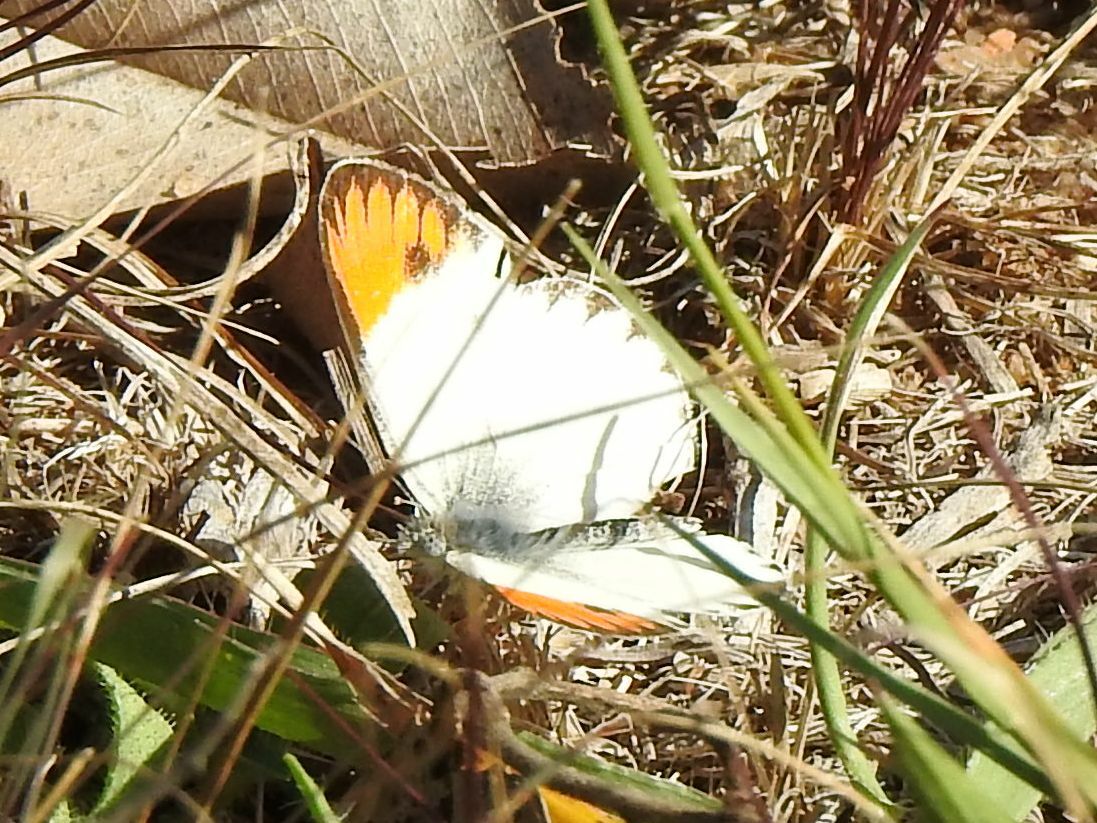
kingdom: Animalia
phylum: Arthropoda
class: Insecta
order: Lepidoptera
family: Pieridae
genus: Colotis
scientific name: Colotis evagore
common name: Desert orange-tip
